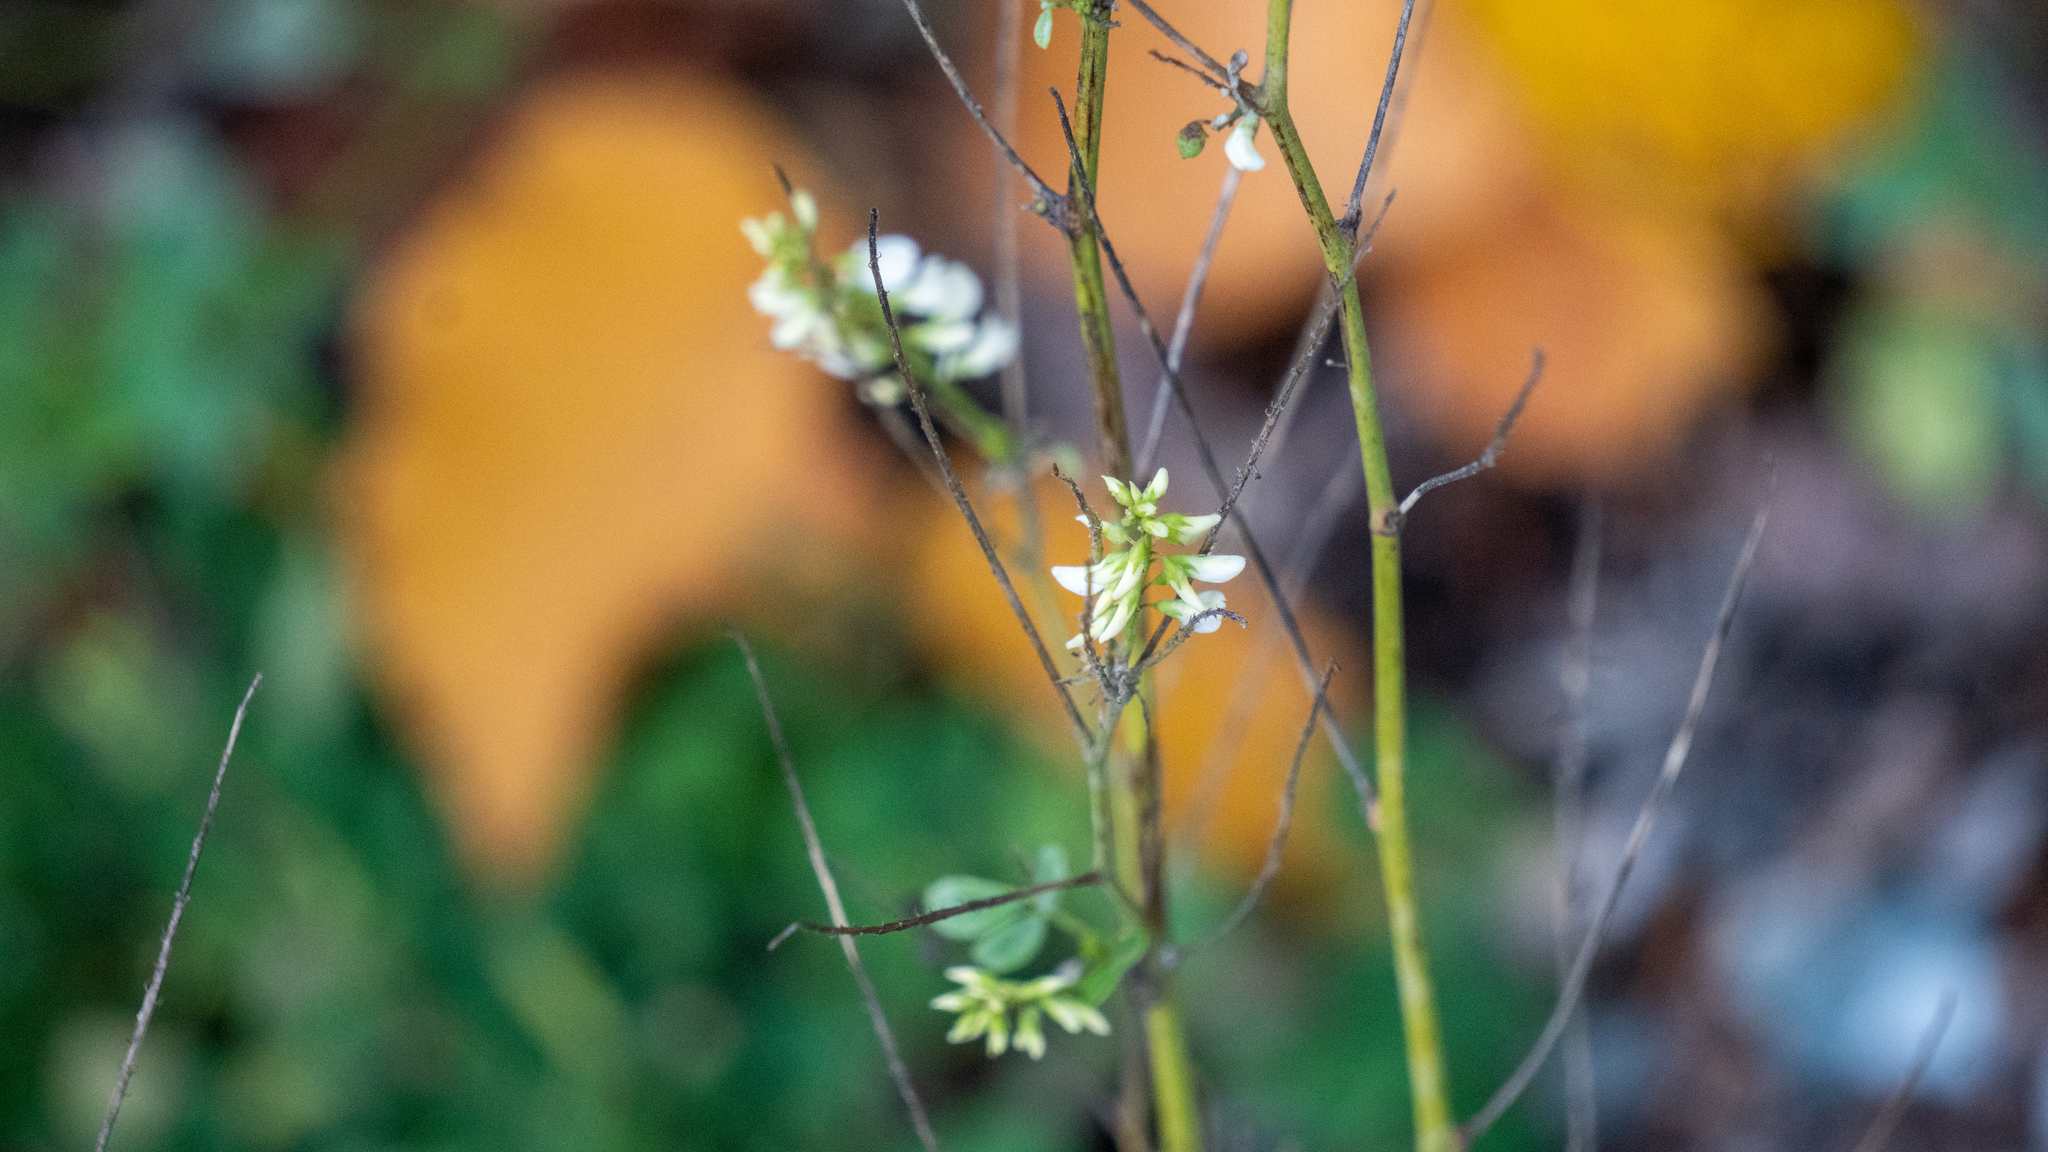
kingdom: Plantae
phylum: Tracheophyta
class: Magnoliopsida
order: Fabales
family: Fabaceae
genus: Melilotus
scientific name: Melilotus albus
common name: White melilot
